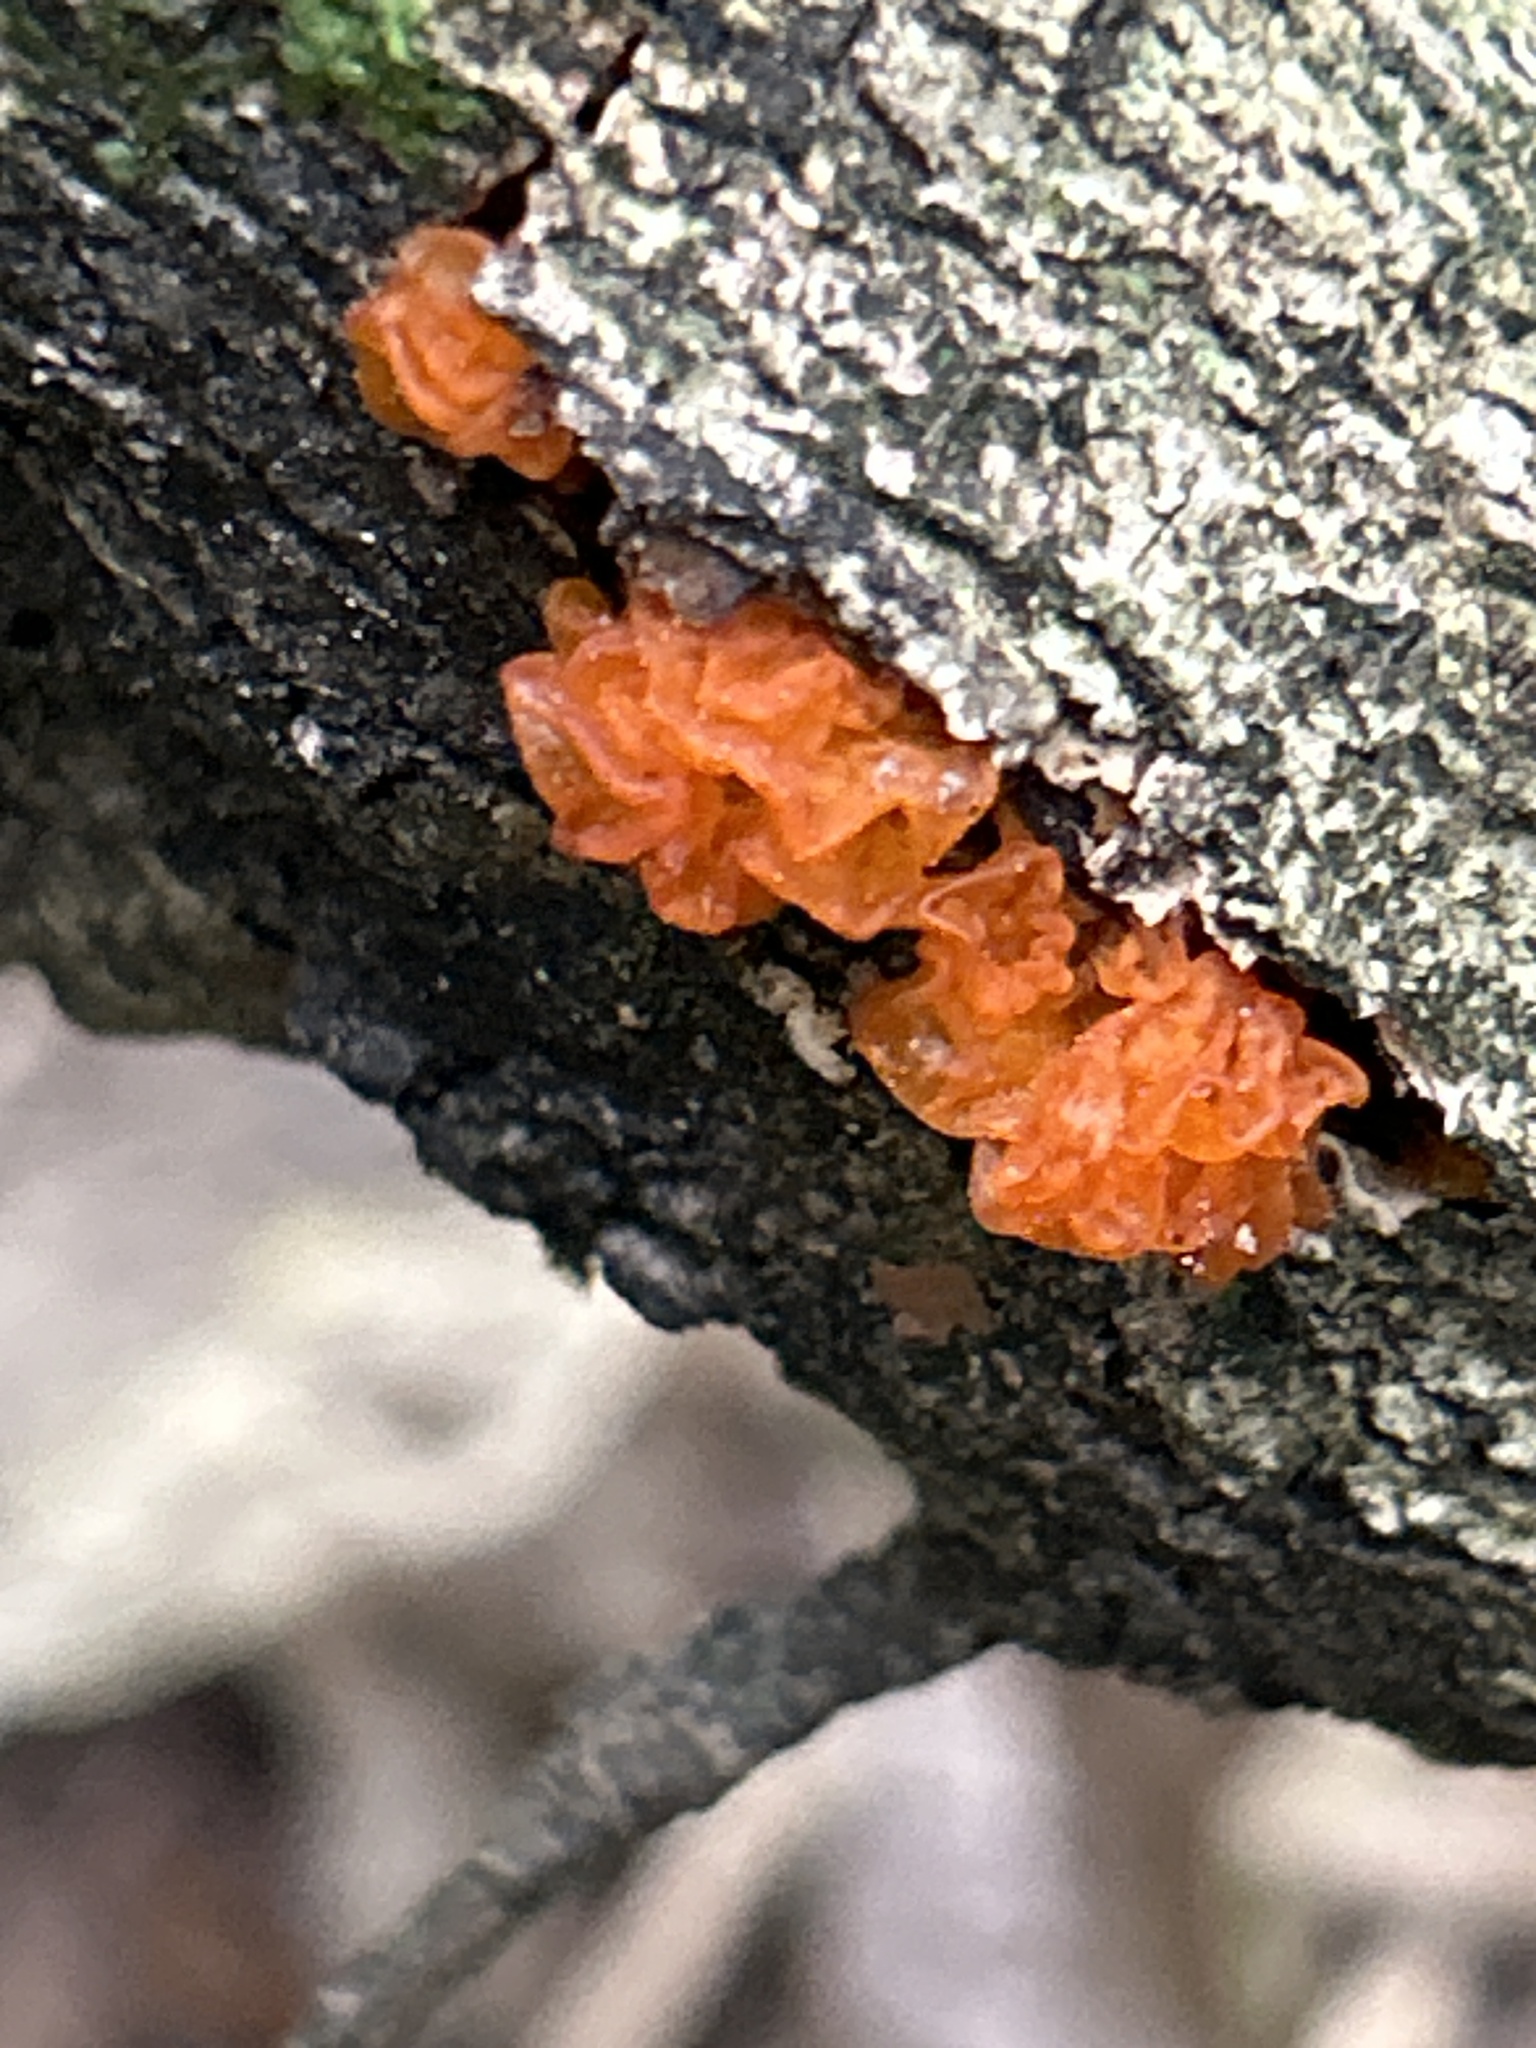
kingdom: Fungi
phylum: Basidiomycota
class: Tremellomycetes
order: Tremellales
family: Tremellaceae
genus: Tremella
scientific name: Tremella mesenterica
